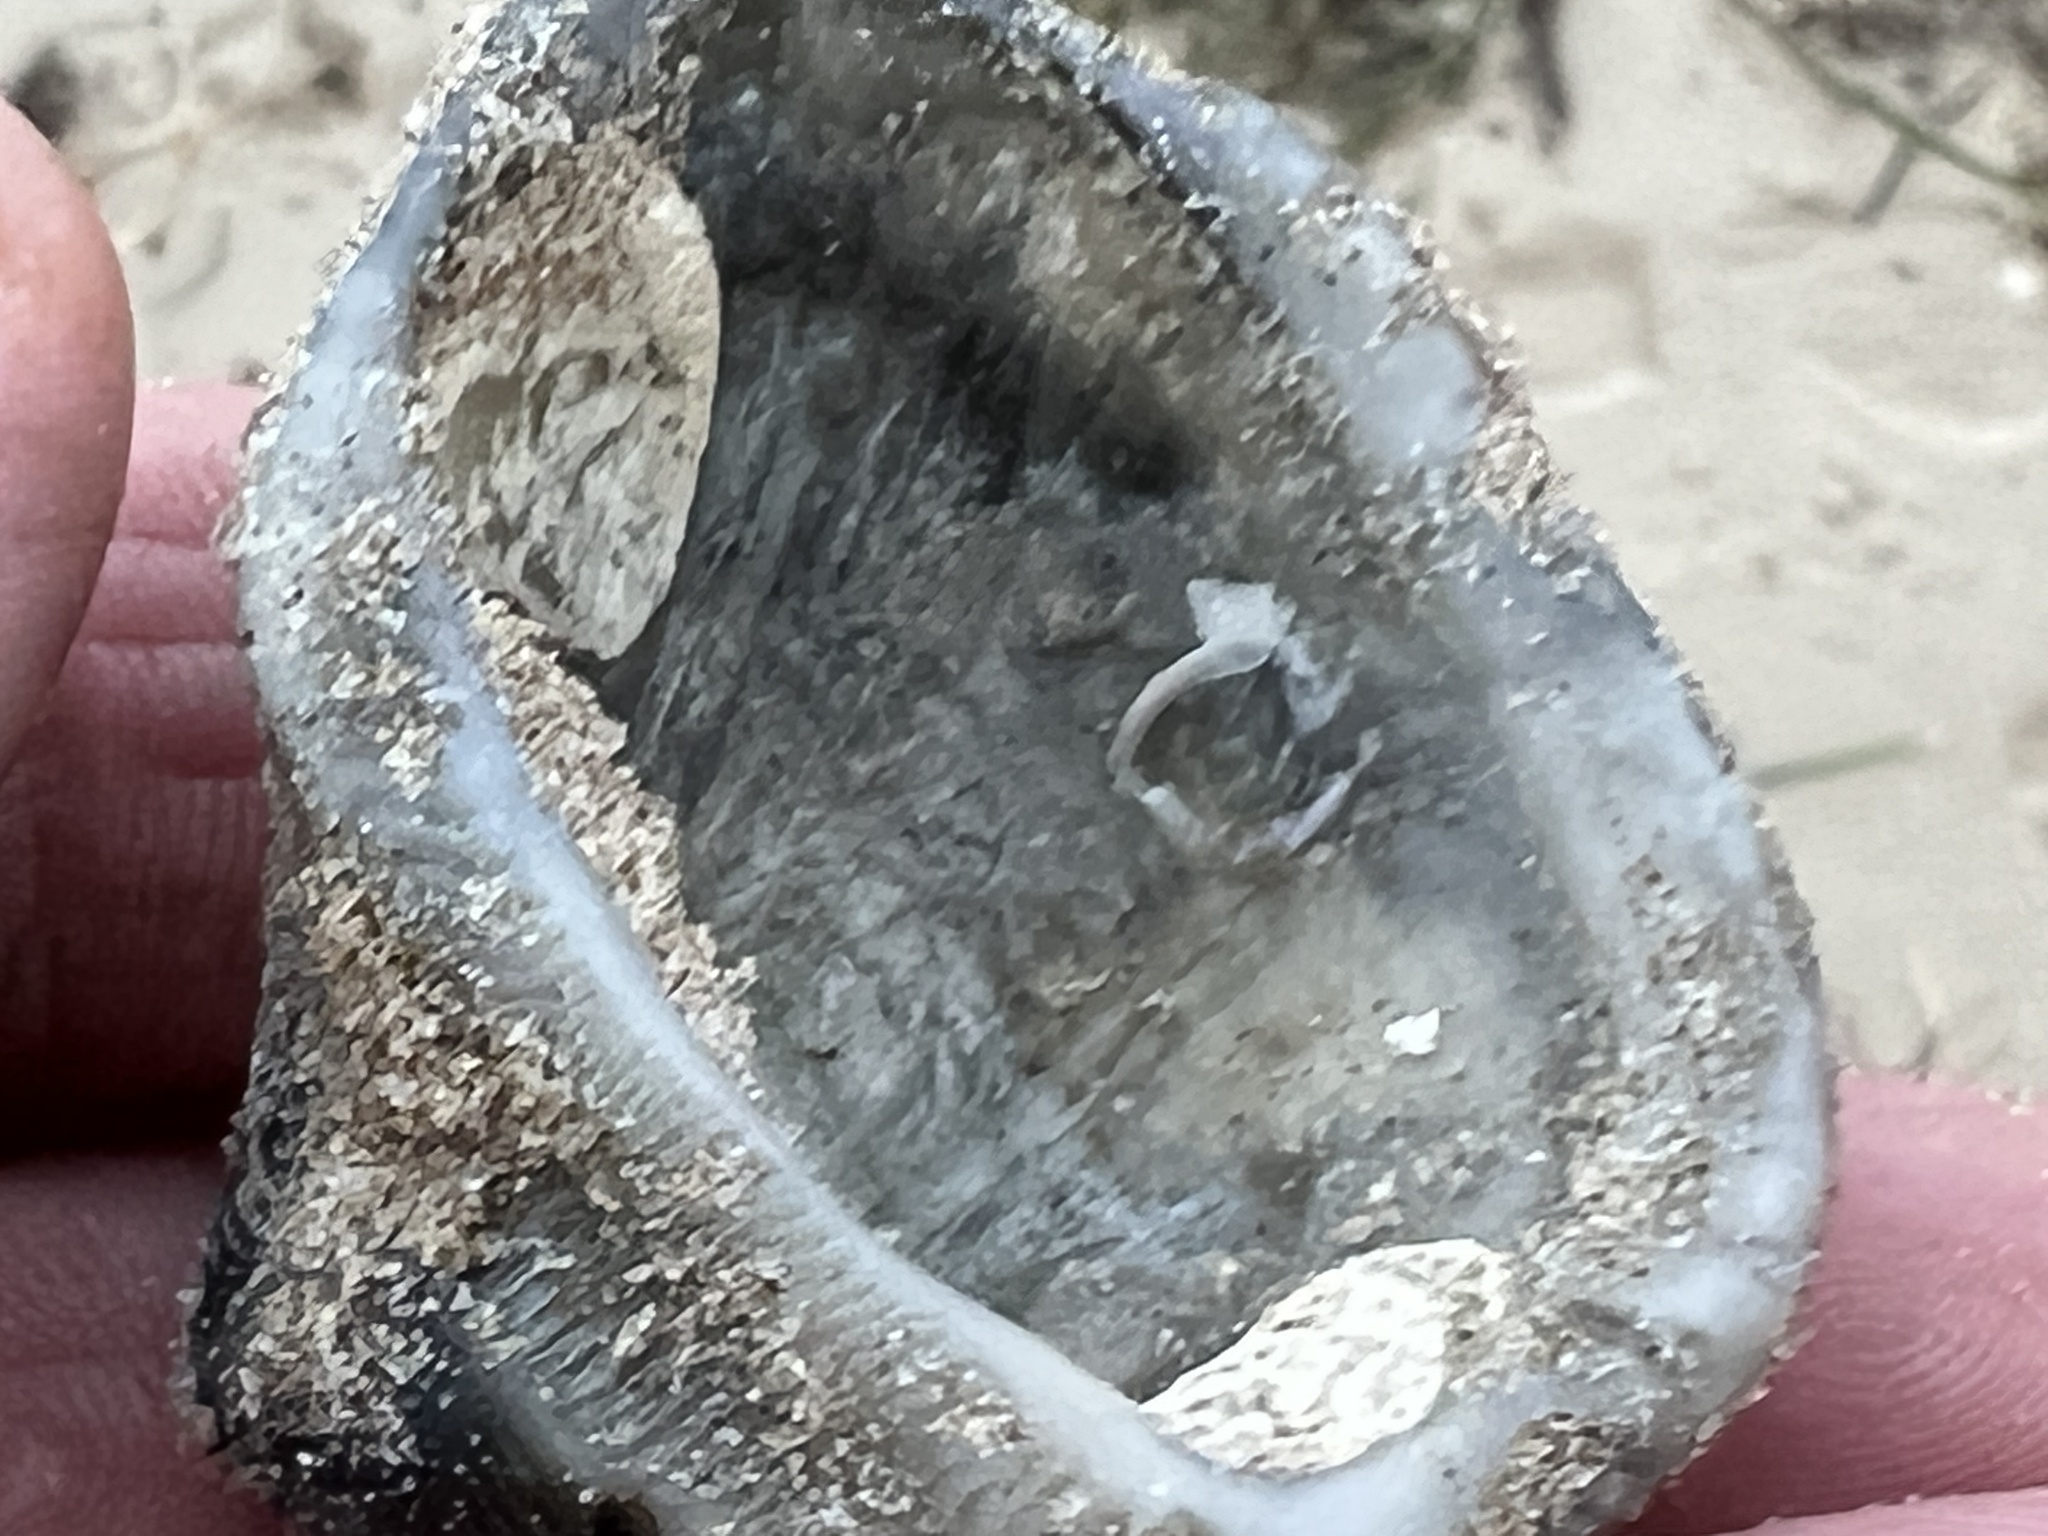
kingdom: Animalia
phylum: Mollusca
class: Bivalvia
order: Arcida
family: Noetiidae
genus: Noetia
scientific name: Noetia ponderosa
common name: Ponderous ark
